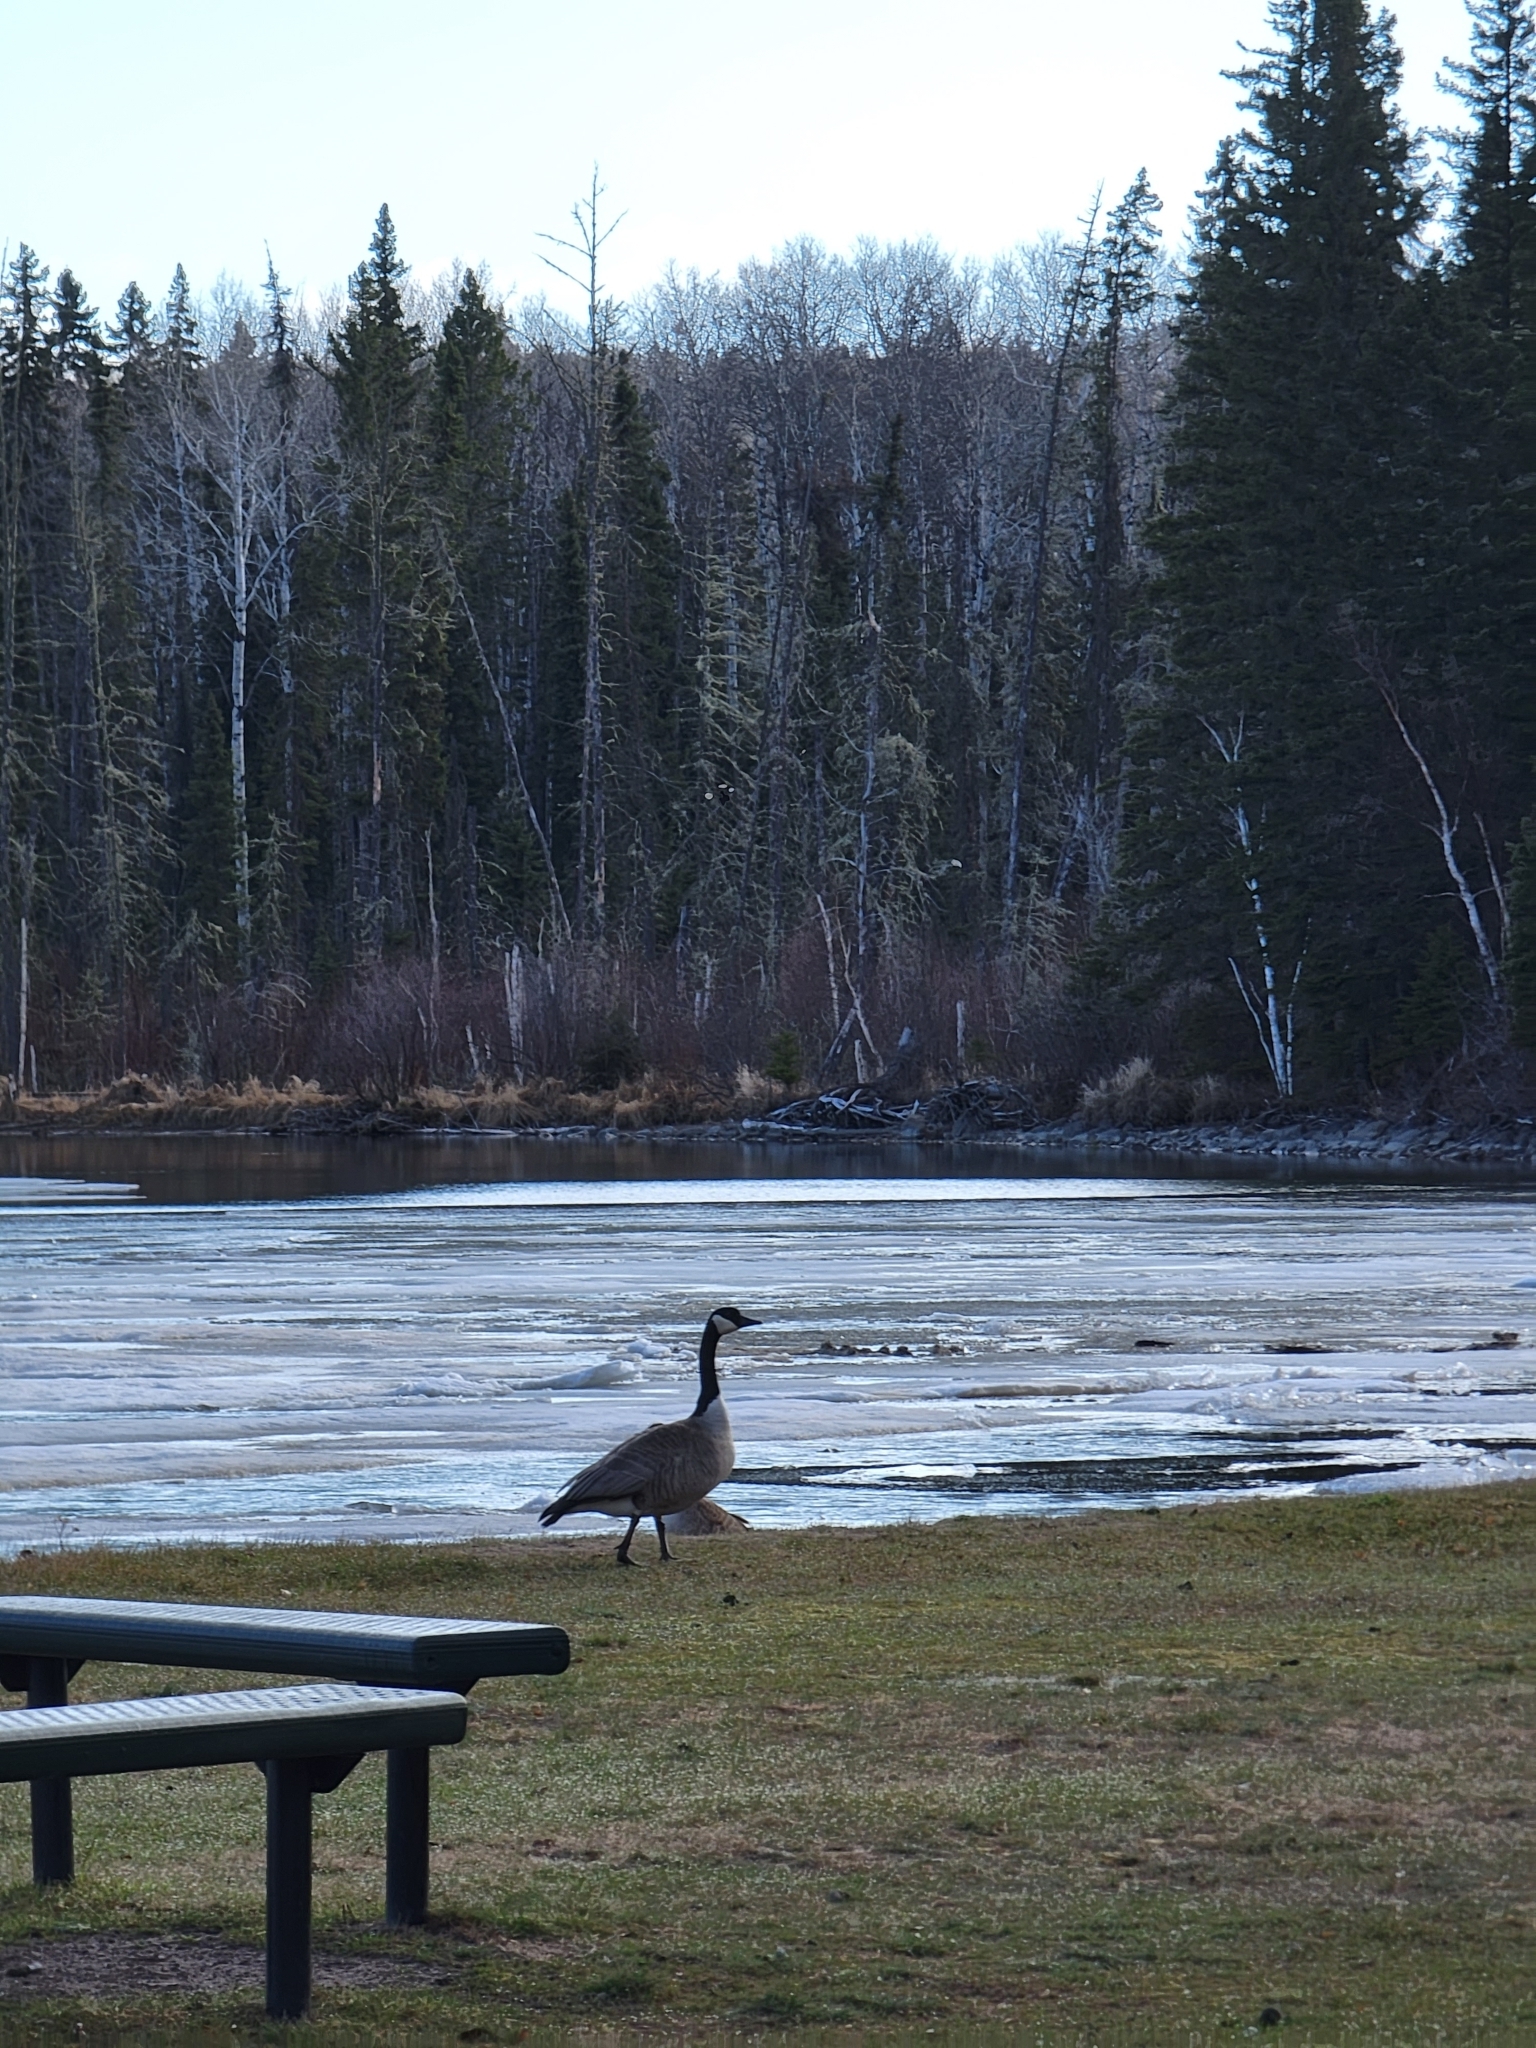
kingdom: Animalia
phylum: Chordata
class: Aves
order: Anseriformes
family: Anatidae
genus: Branta
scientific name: Branta canadensis
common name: Canada goose
